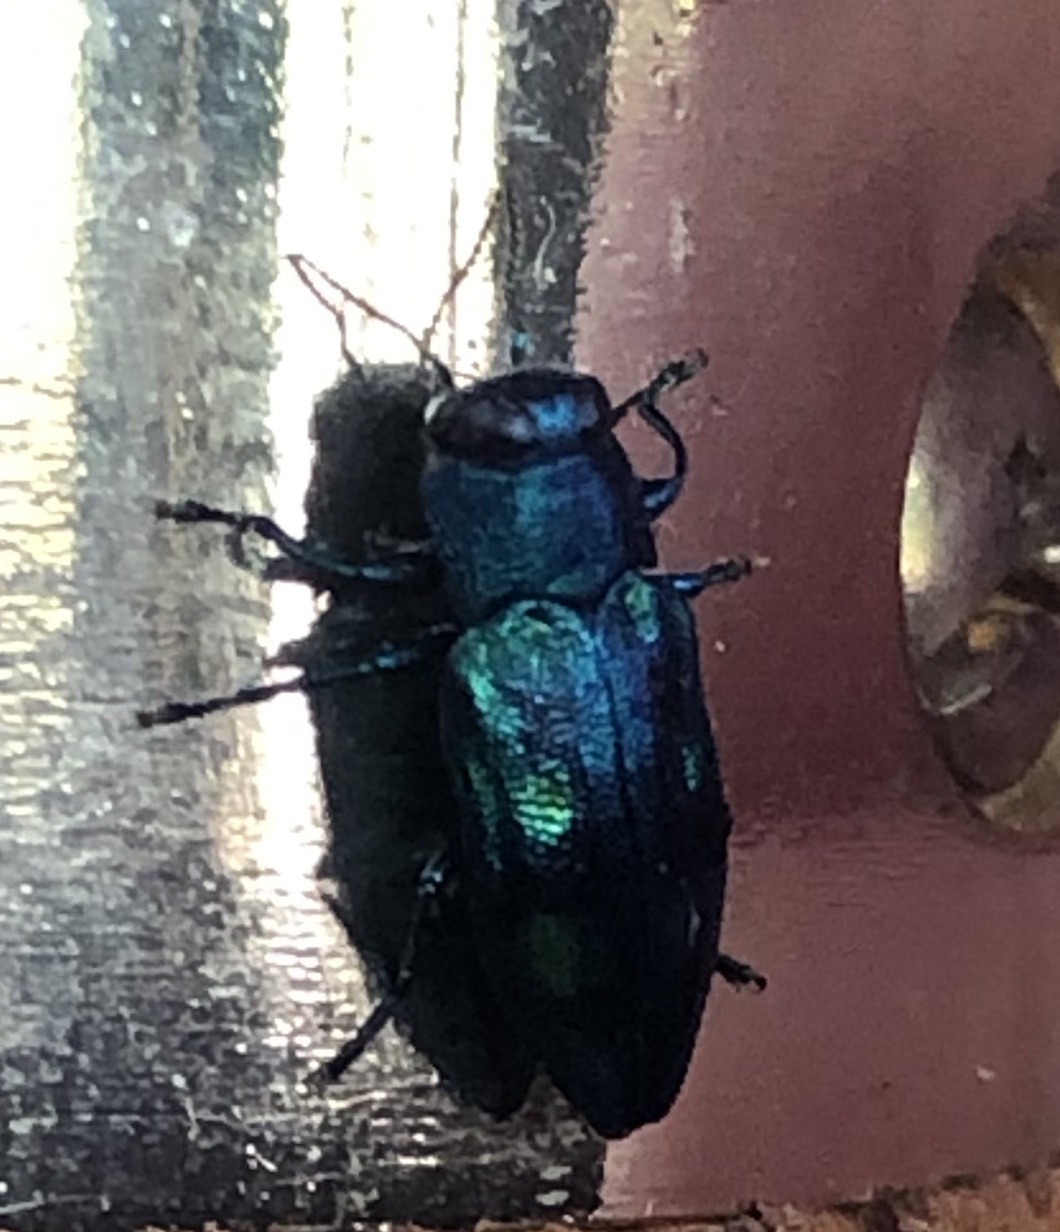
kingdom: Animalia
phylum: Arthropoda
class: Insecta
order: Coleoptera
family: Buprestidae
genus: Chrysobothris
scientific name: Chrysobothris azurea
